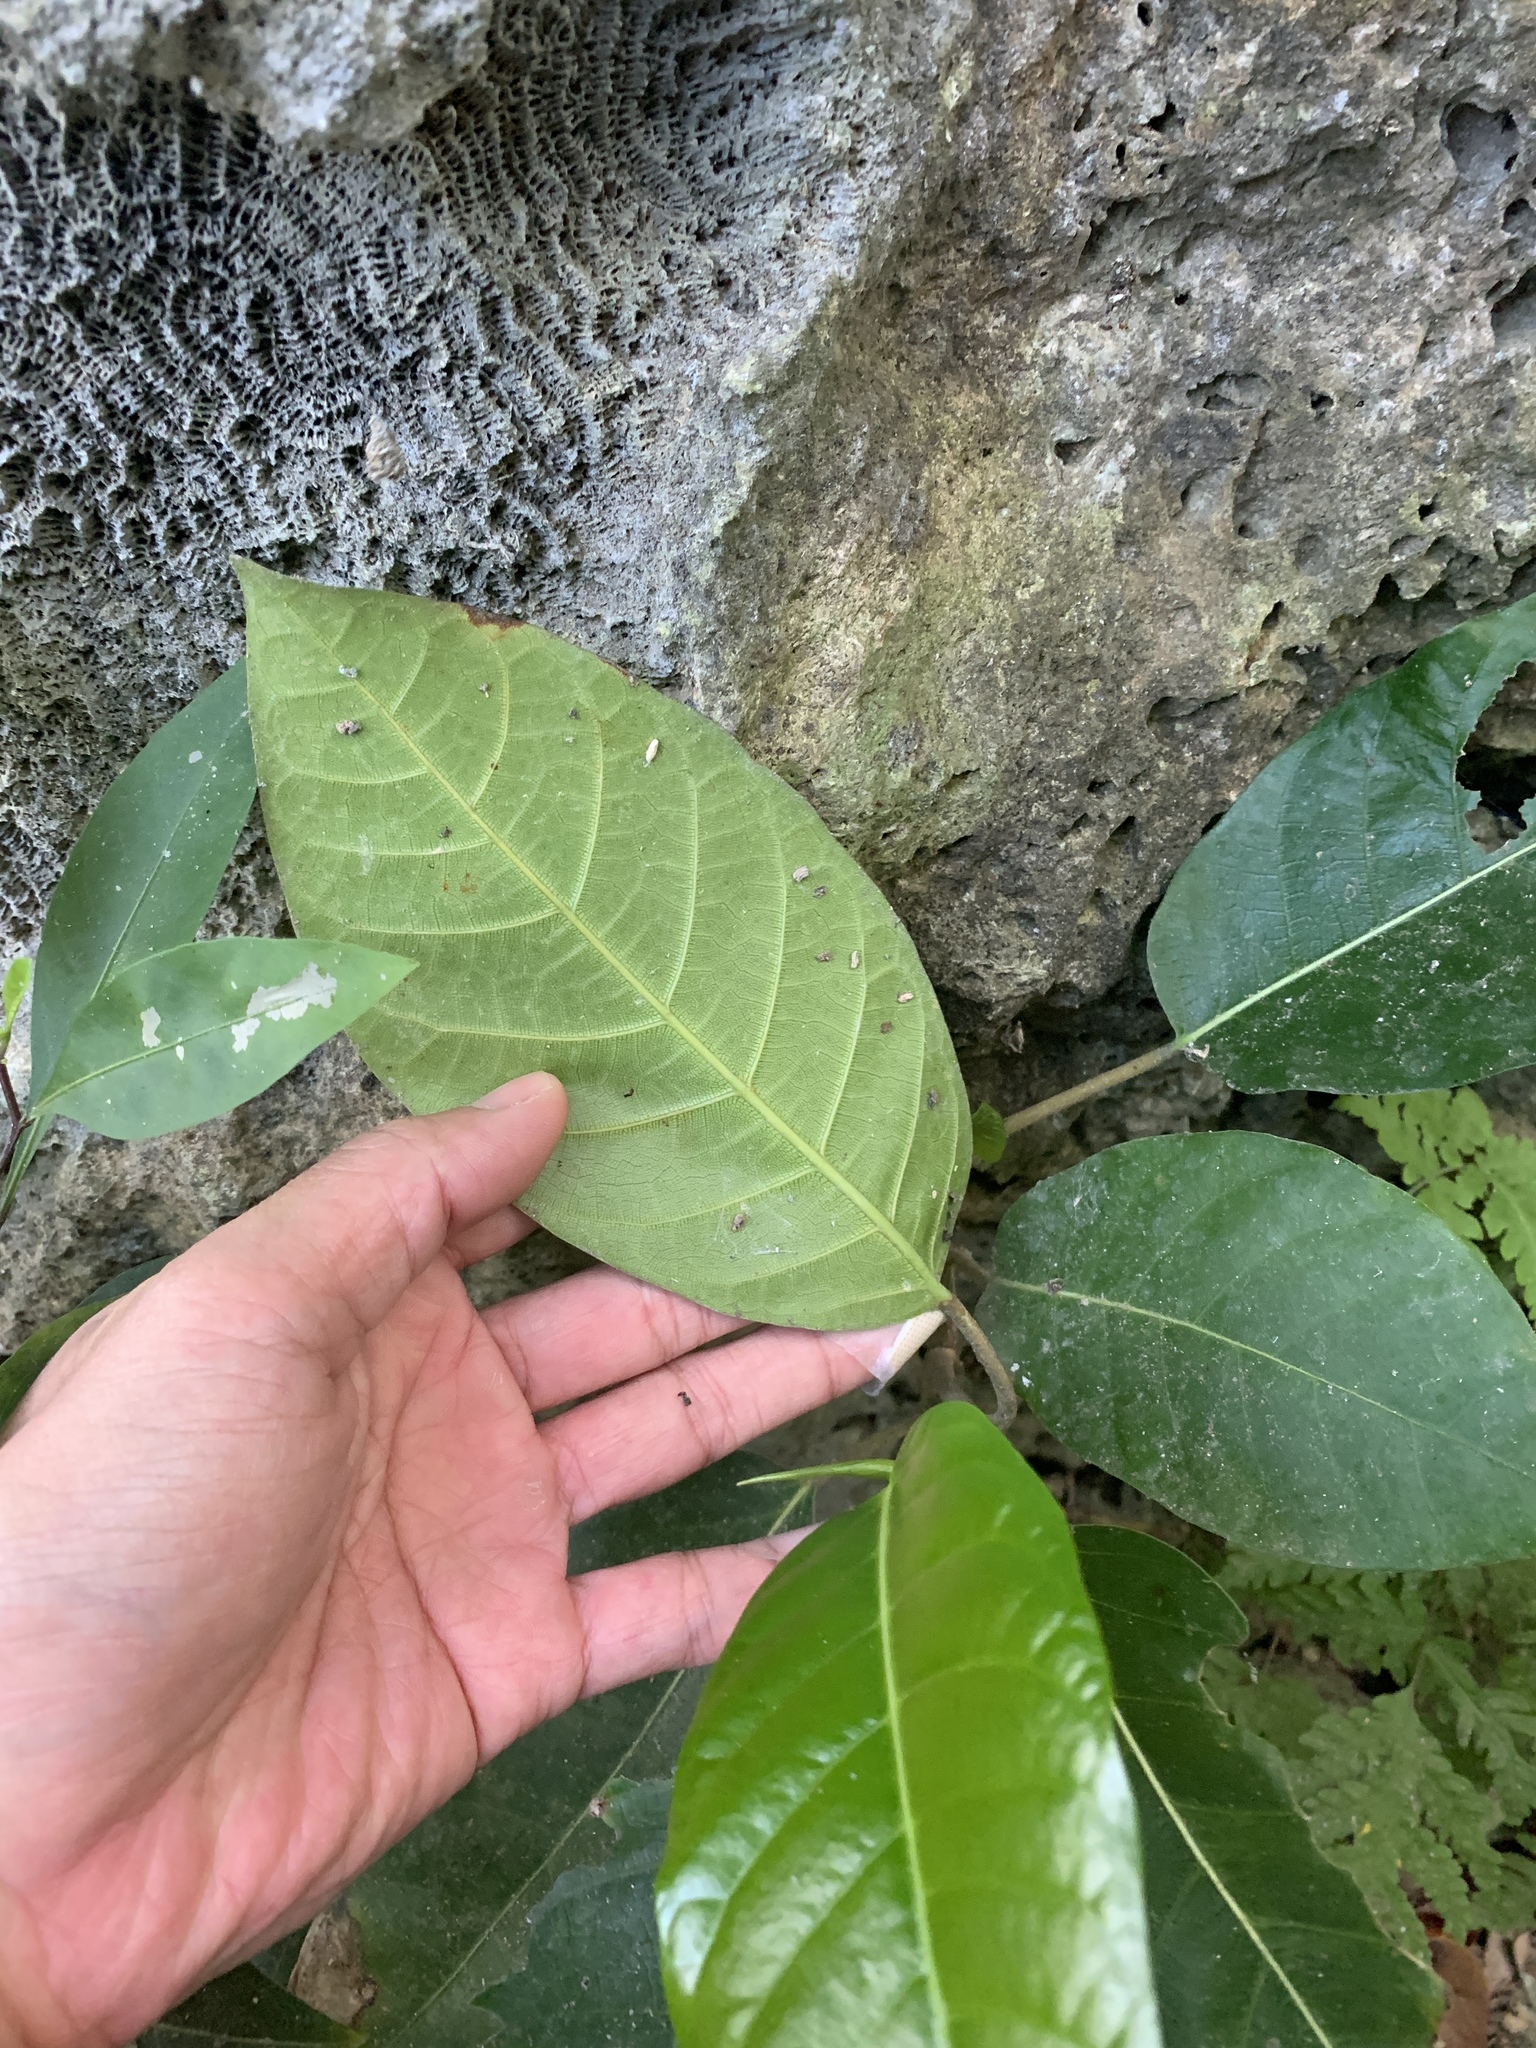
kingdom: Plantae
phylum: Tracheophyta
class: Magnoliopsida
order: Rosales
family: Moraceae
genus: Ficus
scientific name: Ficus tinctoria
